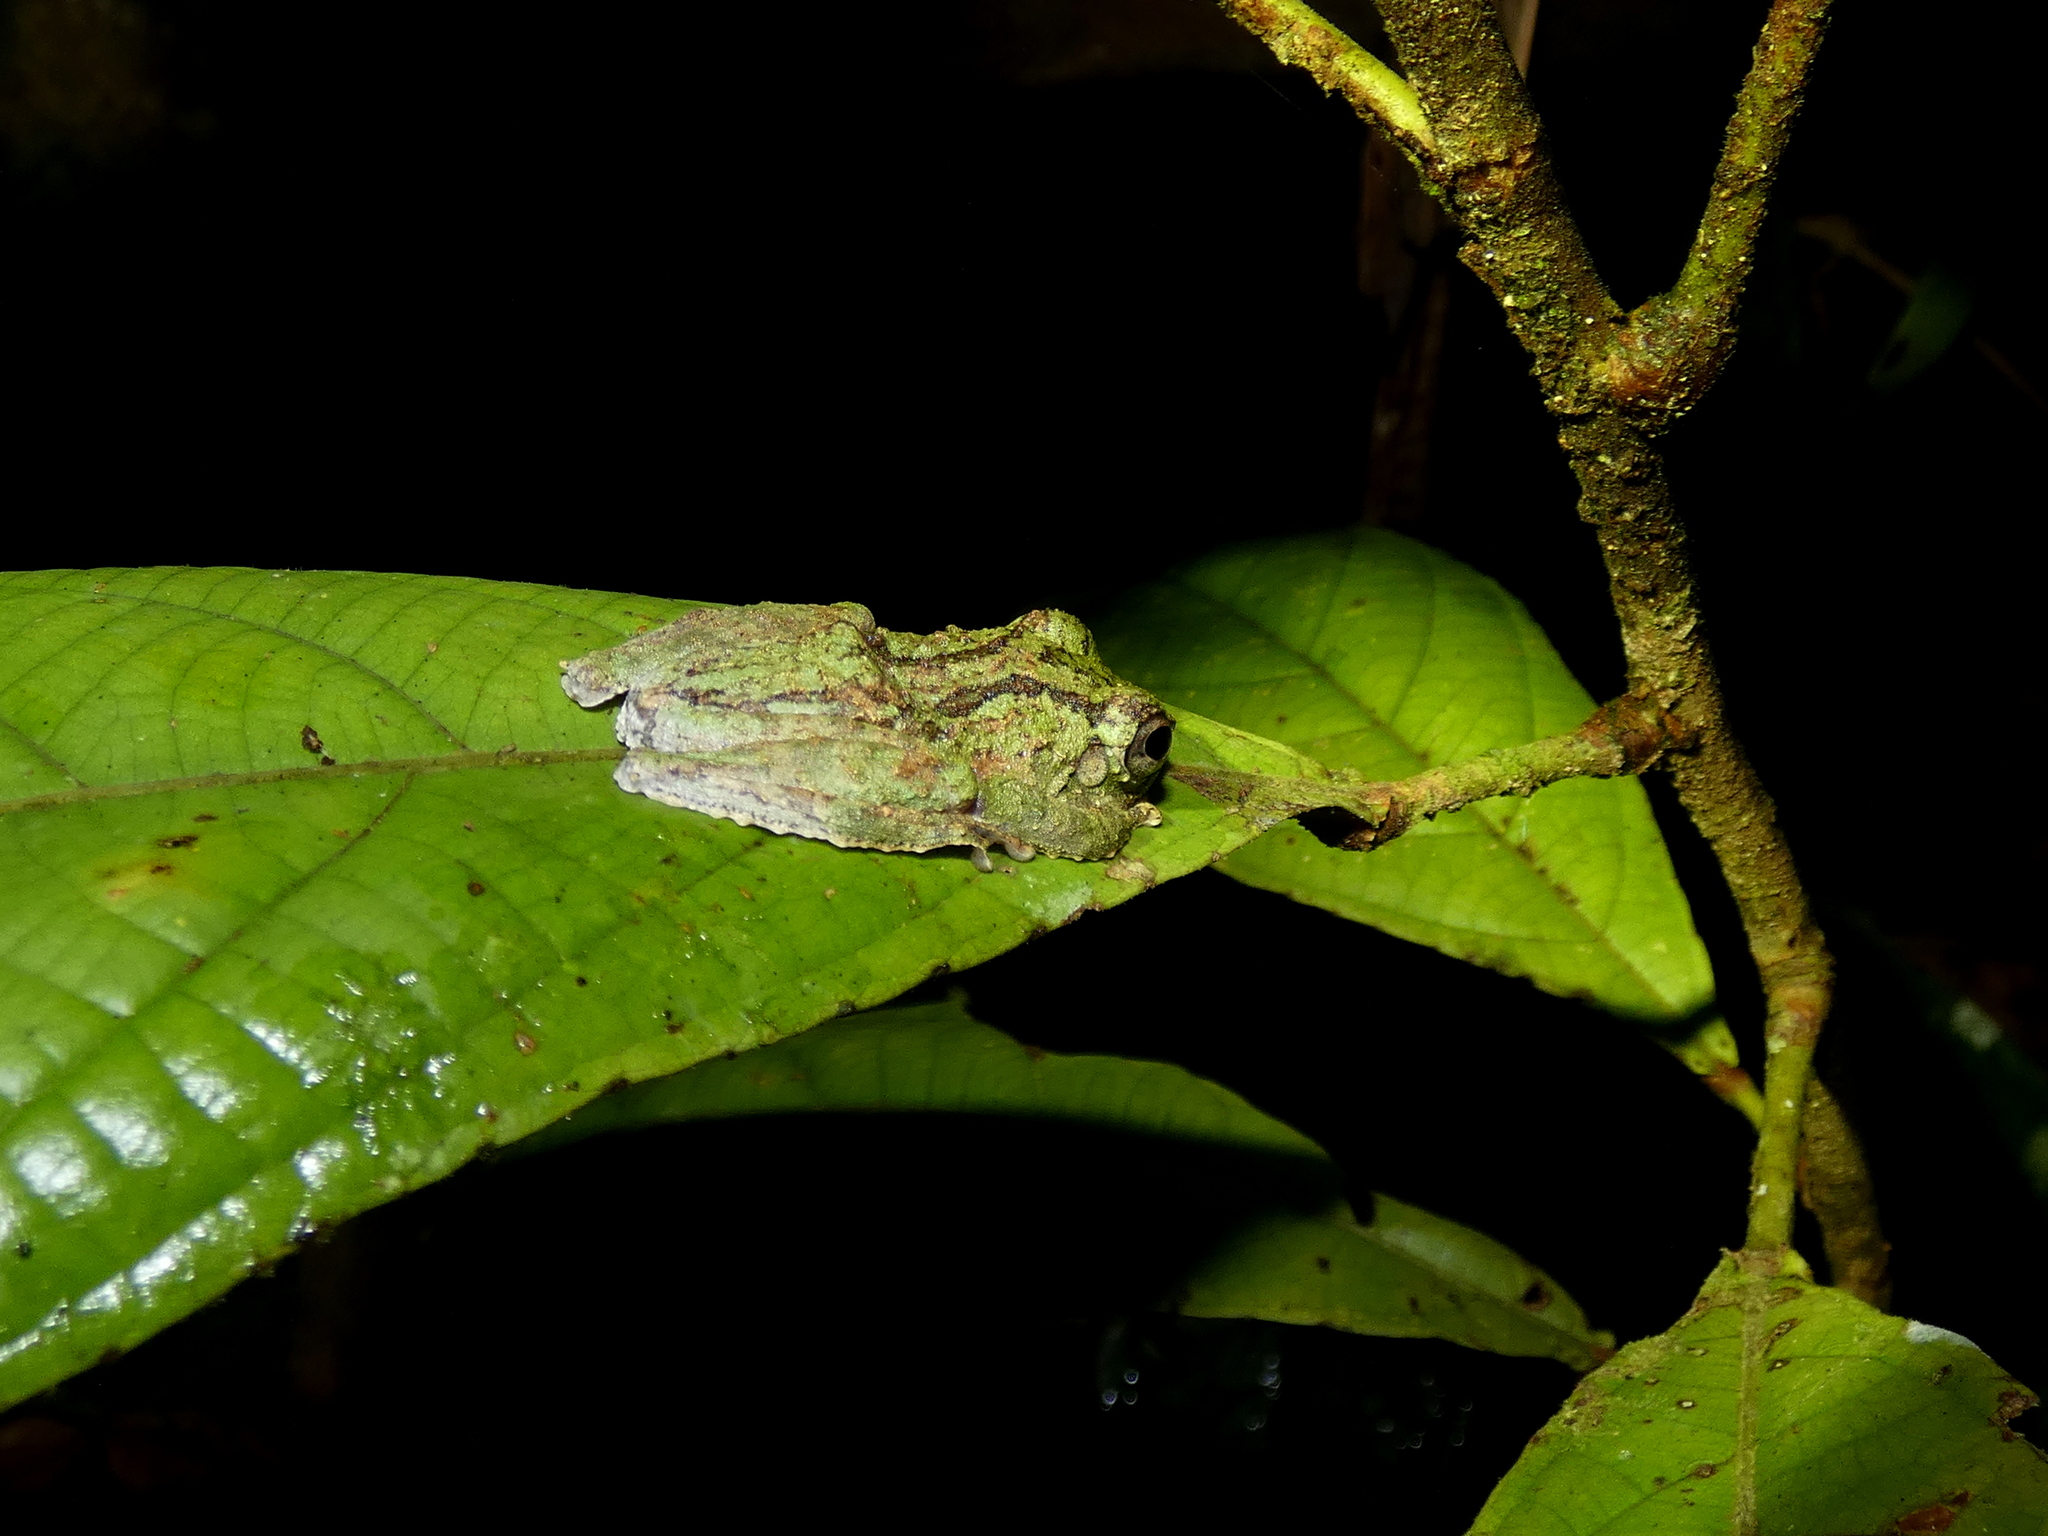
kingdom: Animalia
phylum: Chordata
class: Amphibia
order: Anura
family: Rhacophoridae
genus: Kurixalus
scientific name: Kurixalus chaseni
